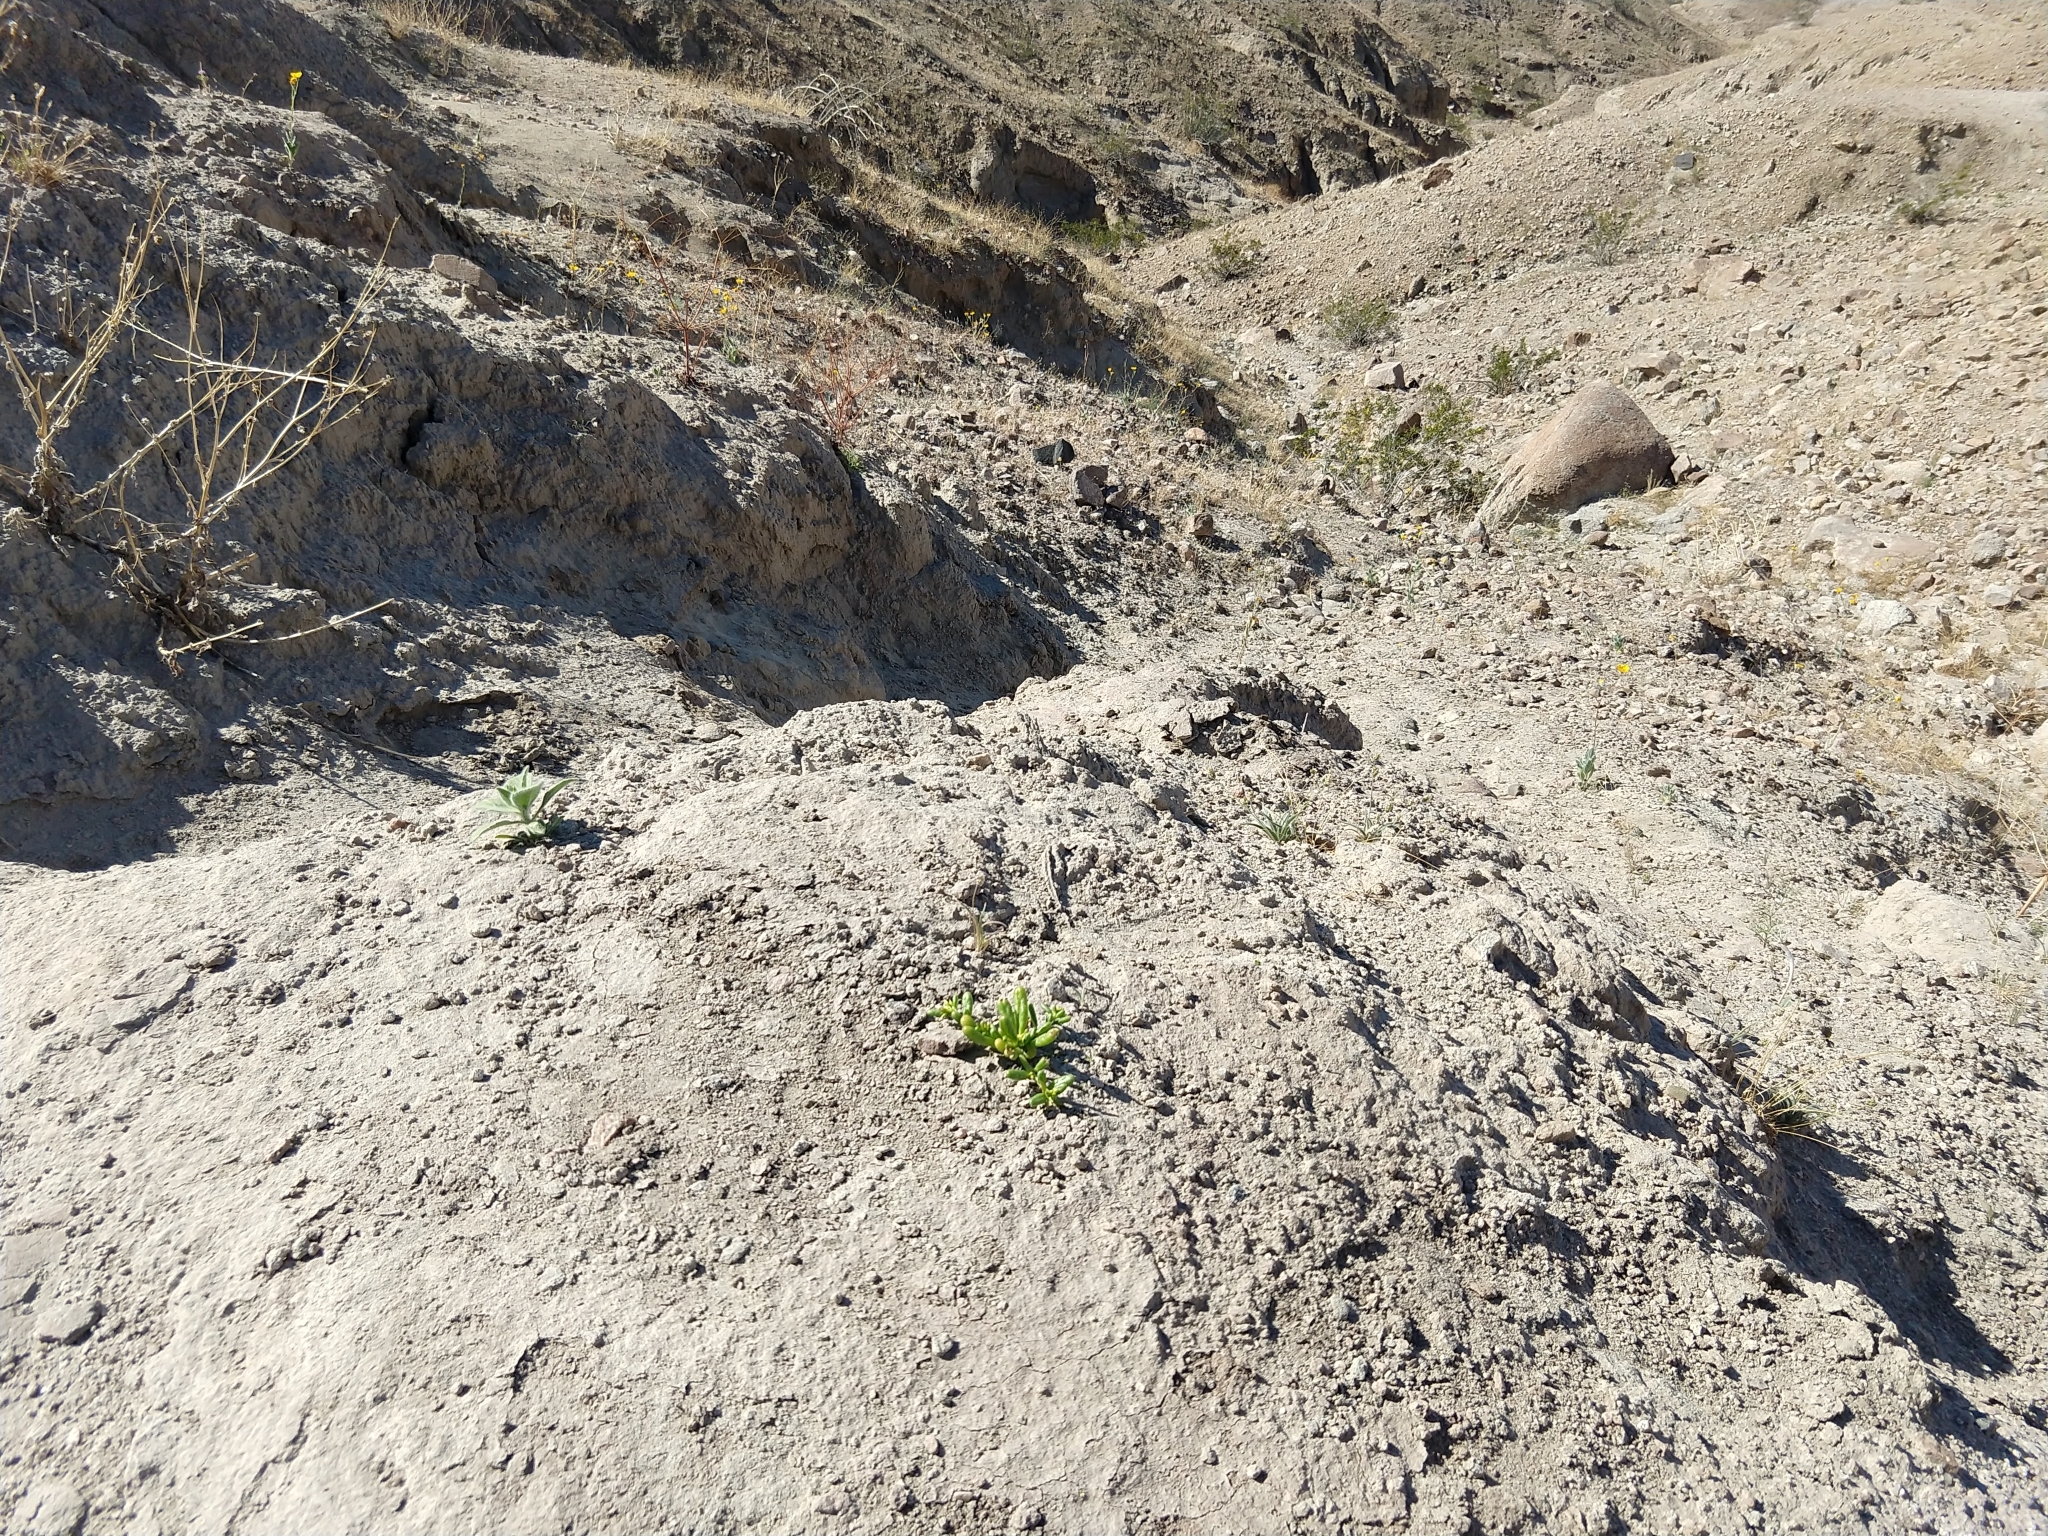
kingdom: Plantae
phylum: Tracheophyta
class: Magnoliopsida
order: Caryophyllales
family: Montiaceae
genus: Thingia
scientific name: Thingia ambigua
